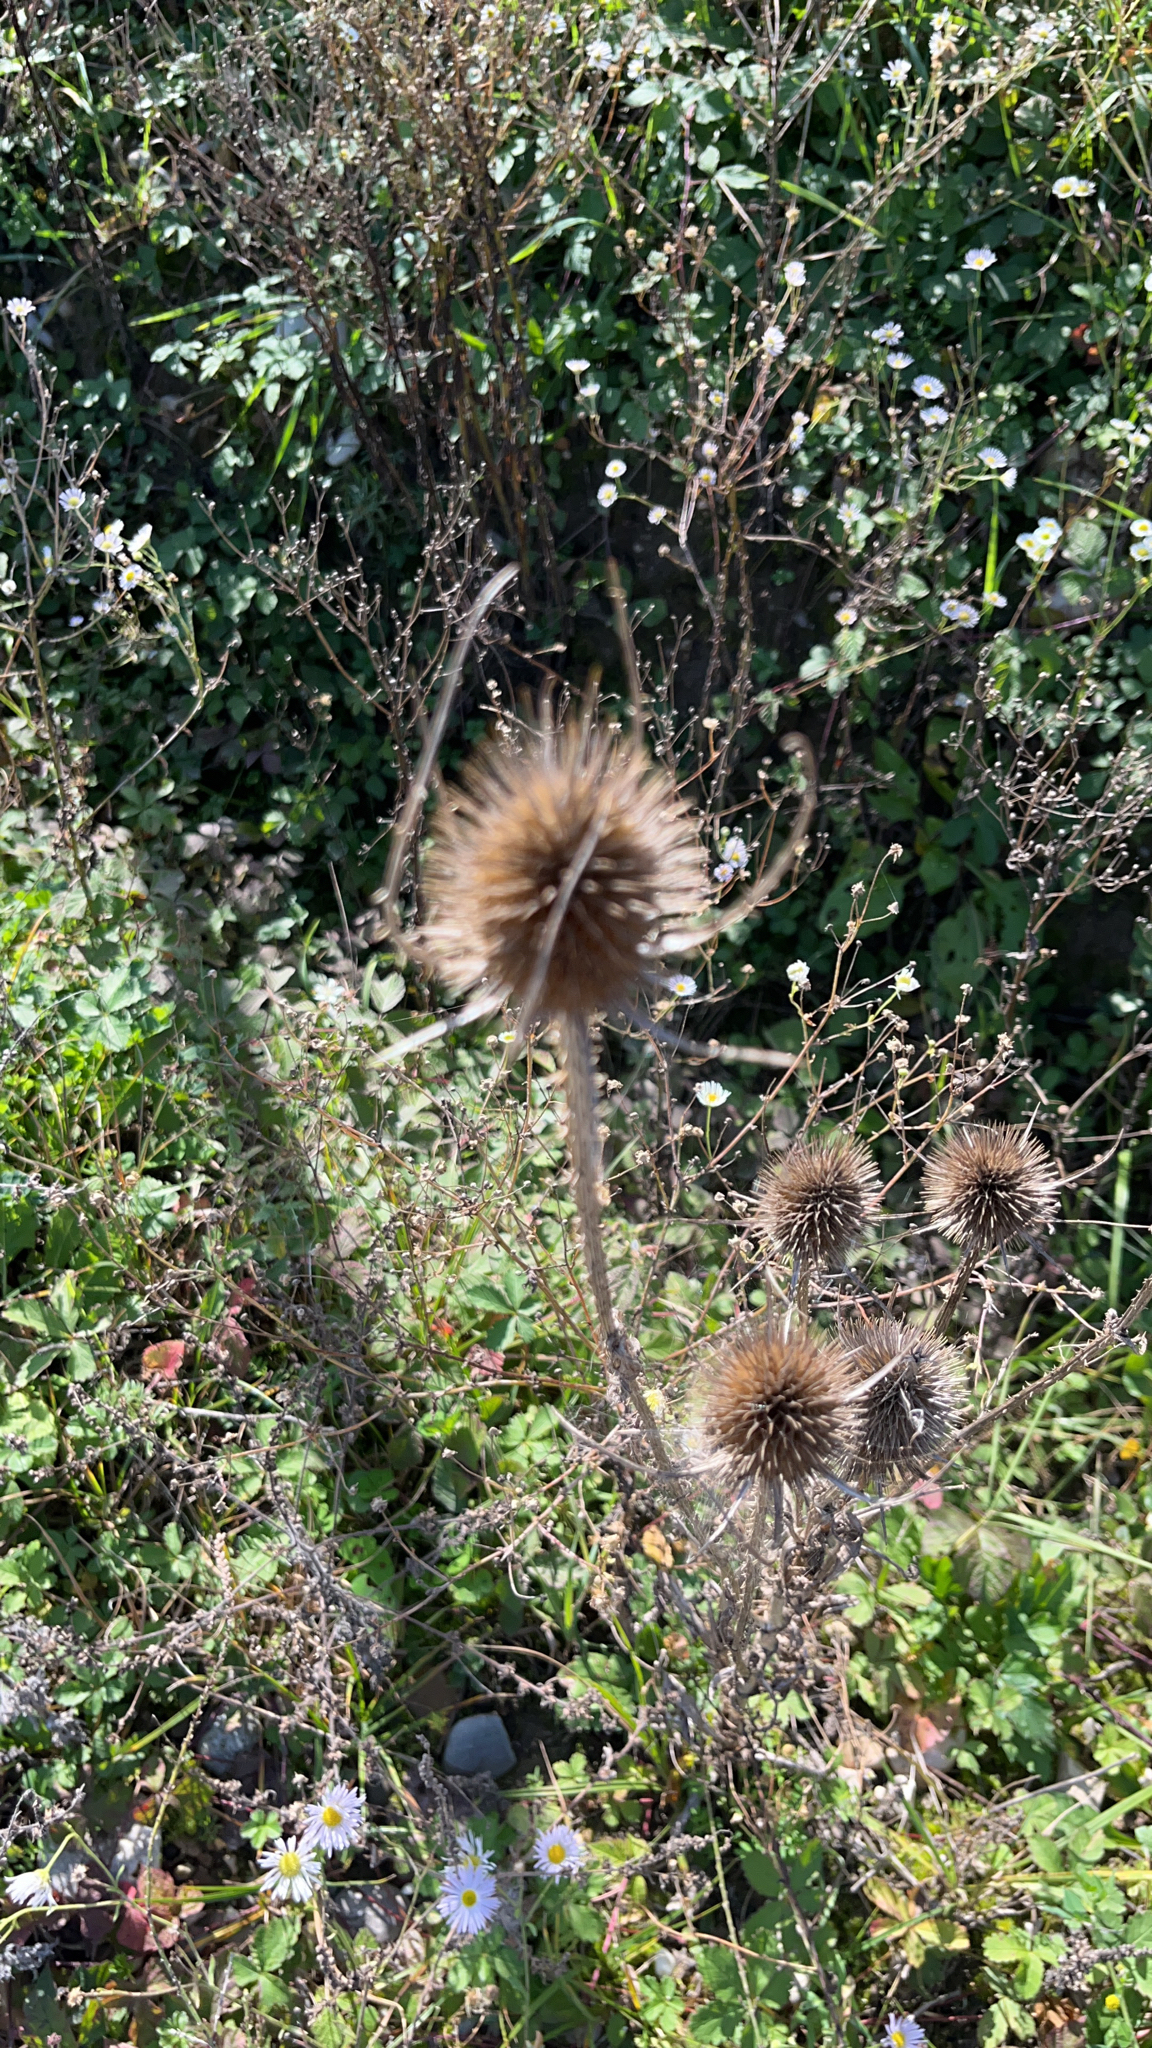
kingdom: Plantae
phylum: Tracheophyta
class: Magnoliopsida
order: Dipsacales
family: Caprifoliaceae
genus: Dipsacus
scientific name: Dipsacus fullonum
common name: Teasel
